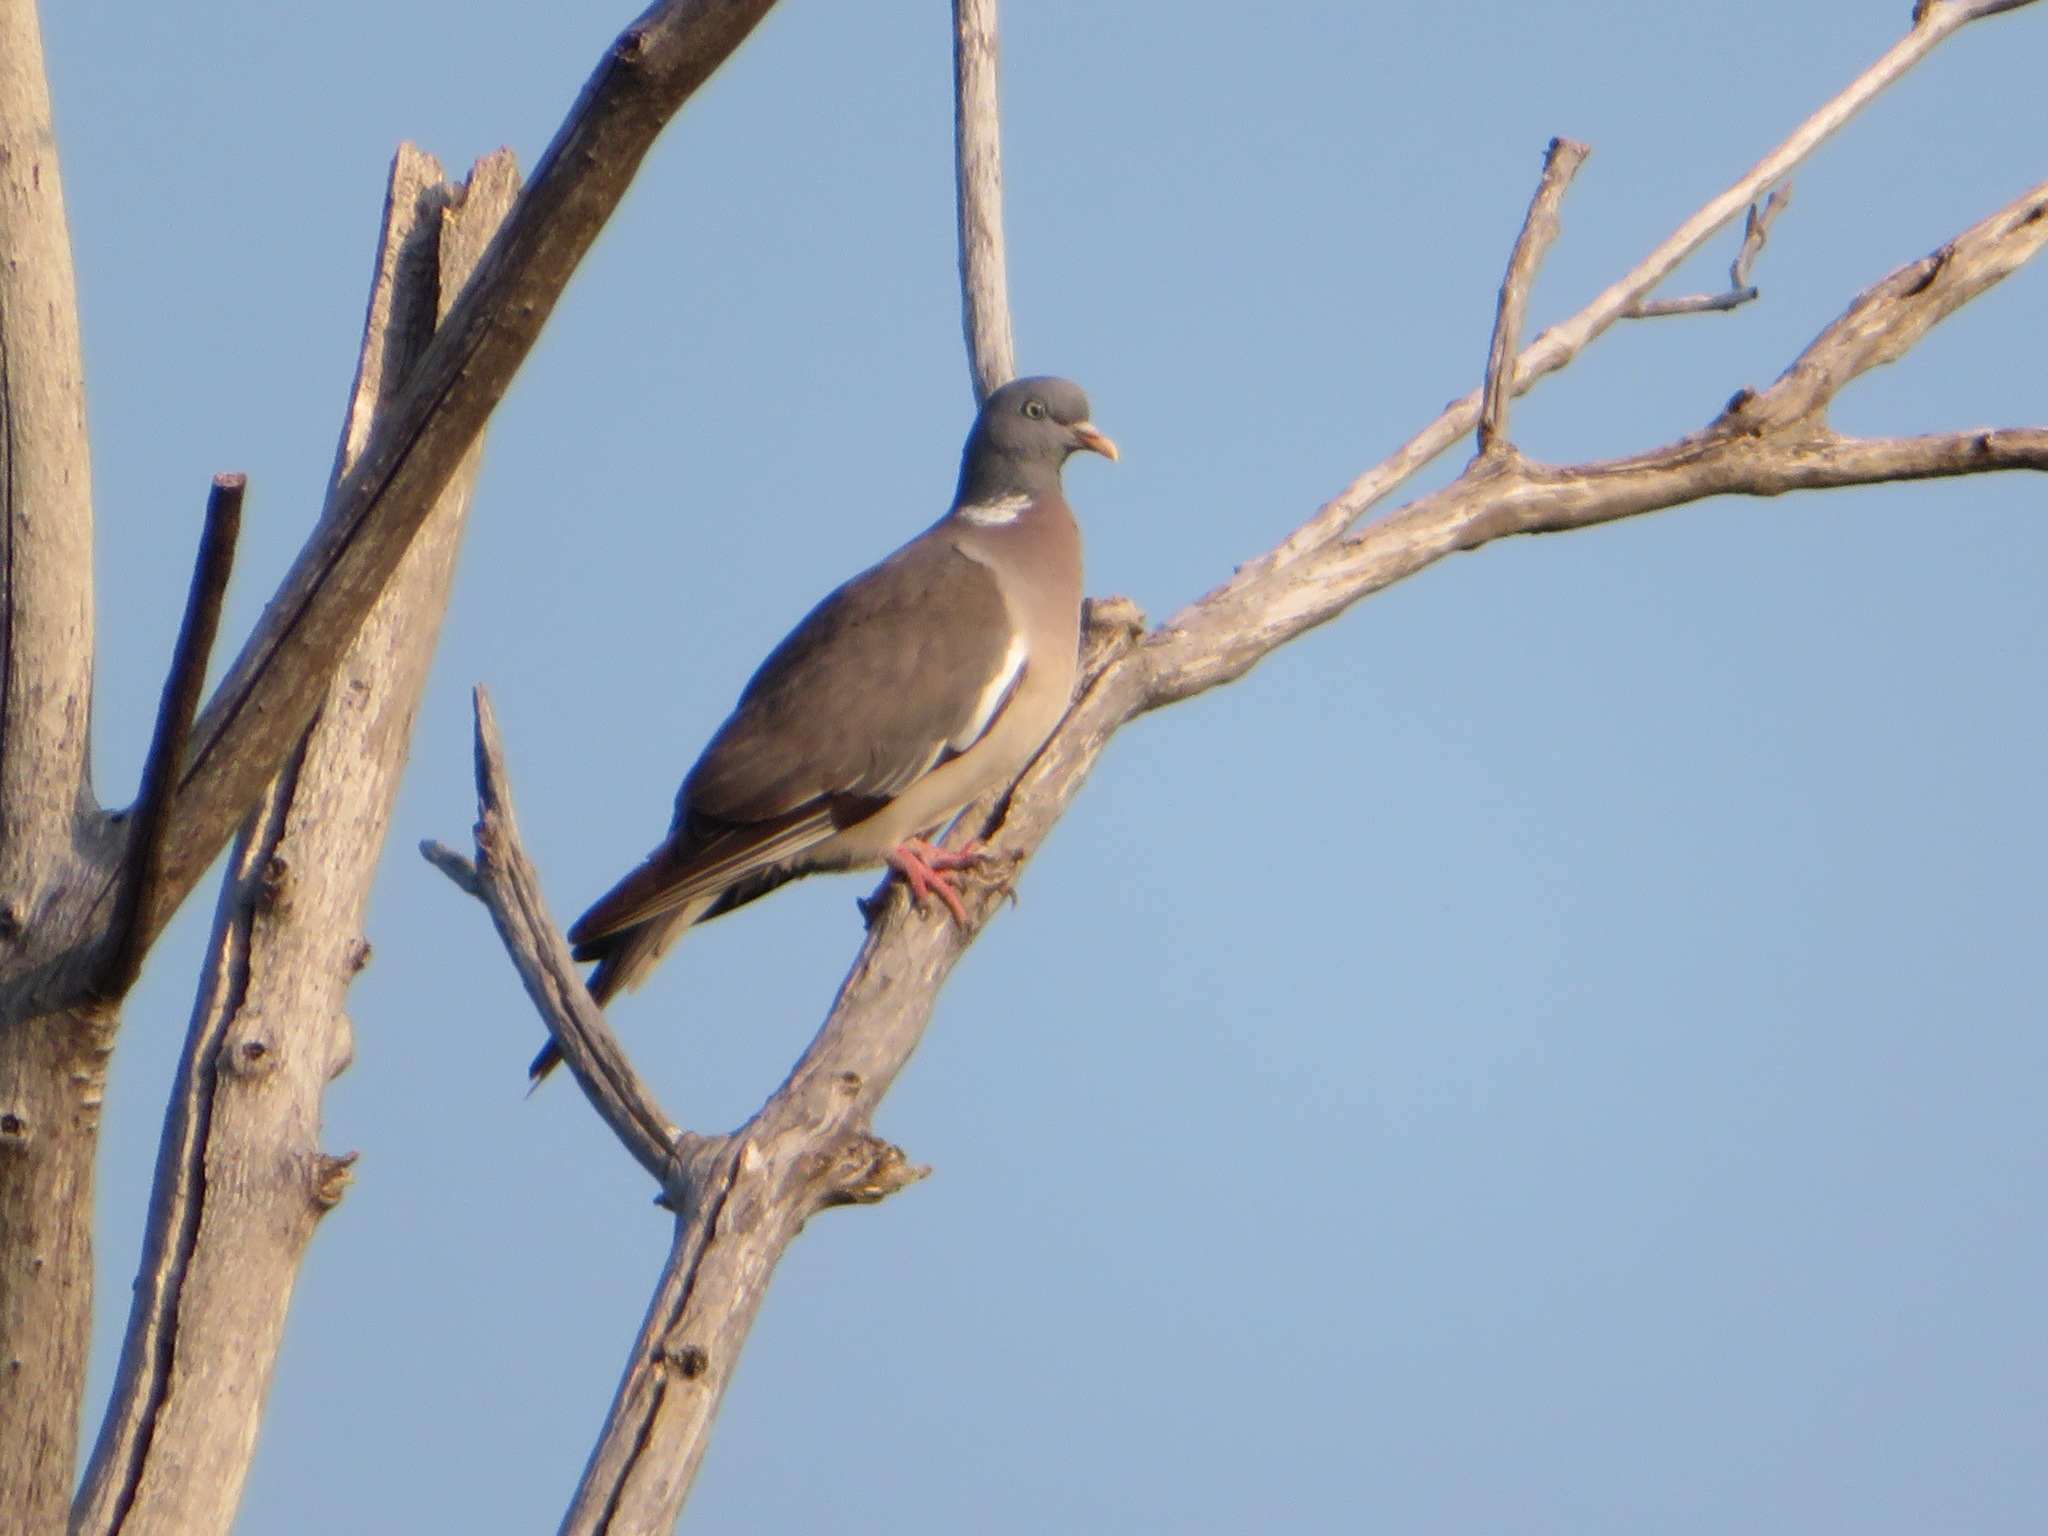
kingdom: Animalia
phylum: Chordata
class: Aves
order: Columbiformes
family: Columbidae
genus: Columba
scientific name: Columba palumbus
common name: Common wood pigeon
